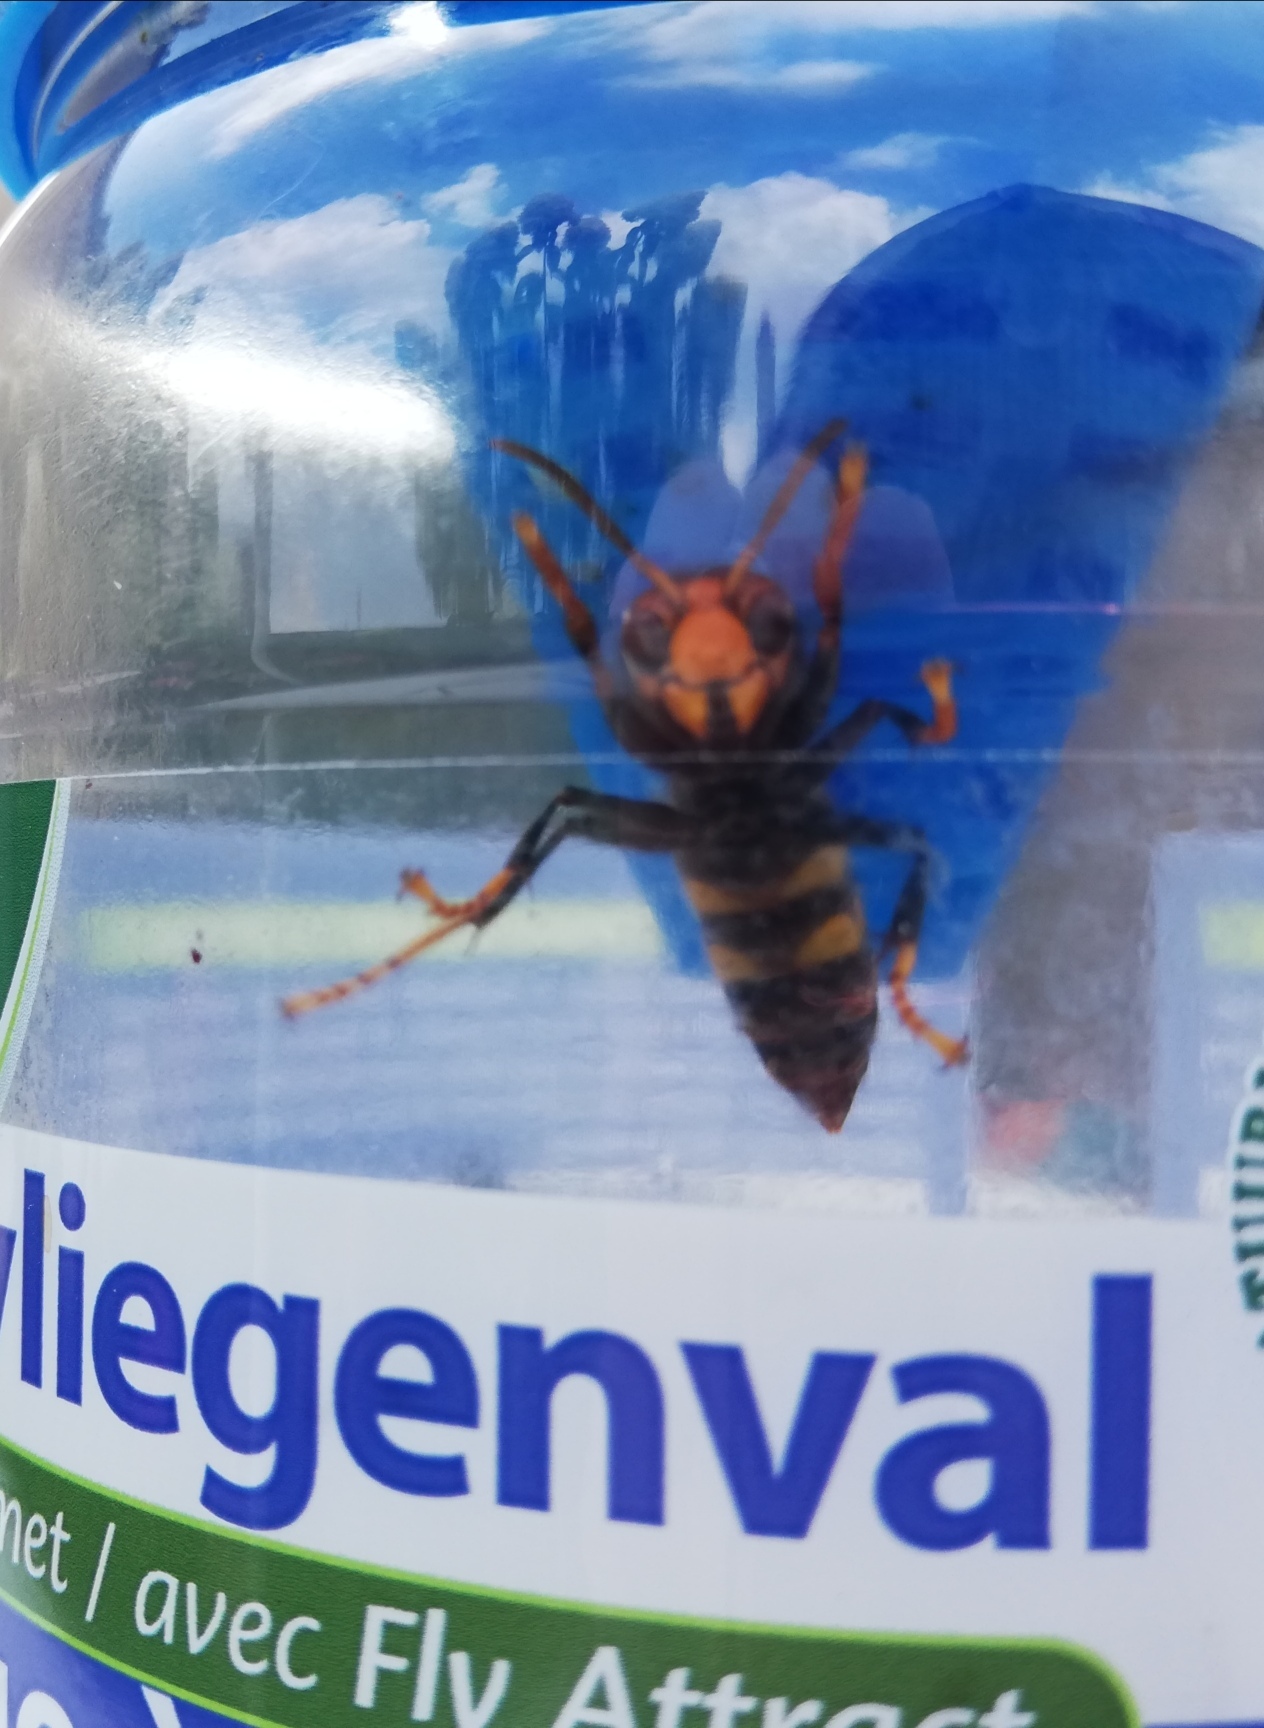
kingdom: Animalia
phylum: Arthropoda
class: Insecta
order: Hymenoptera
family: Vespidae
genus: Vespa
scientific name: Vespa velutina
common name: Asian hornet
